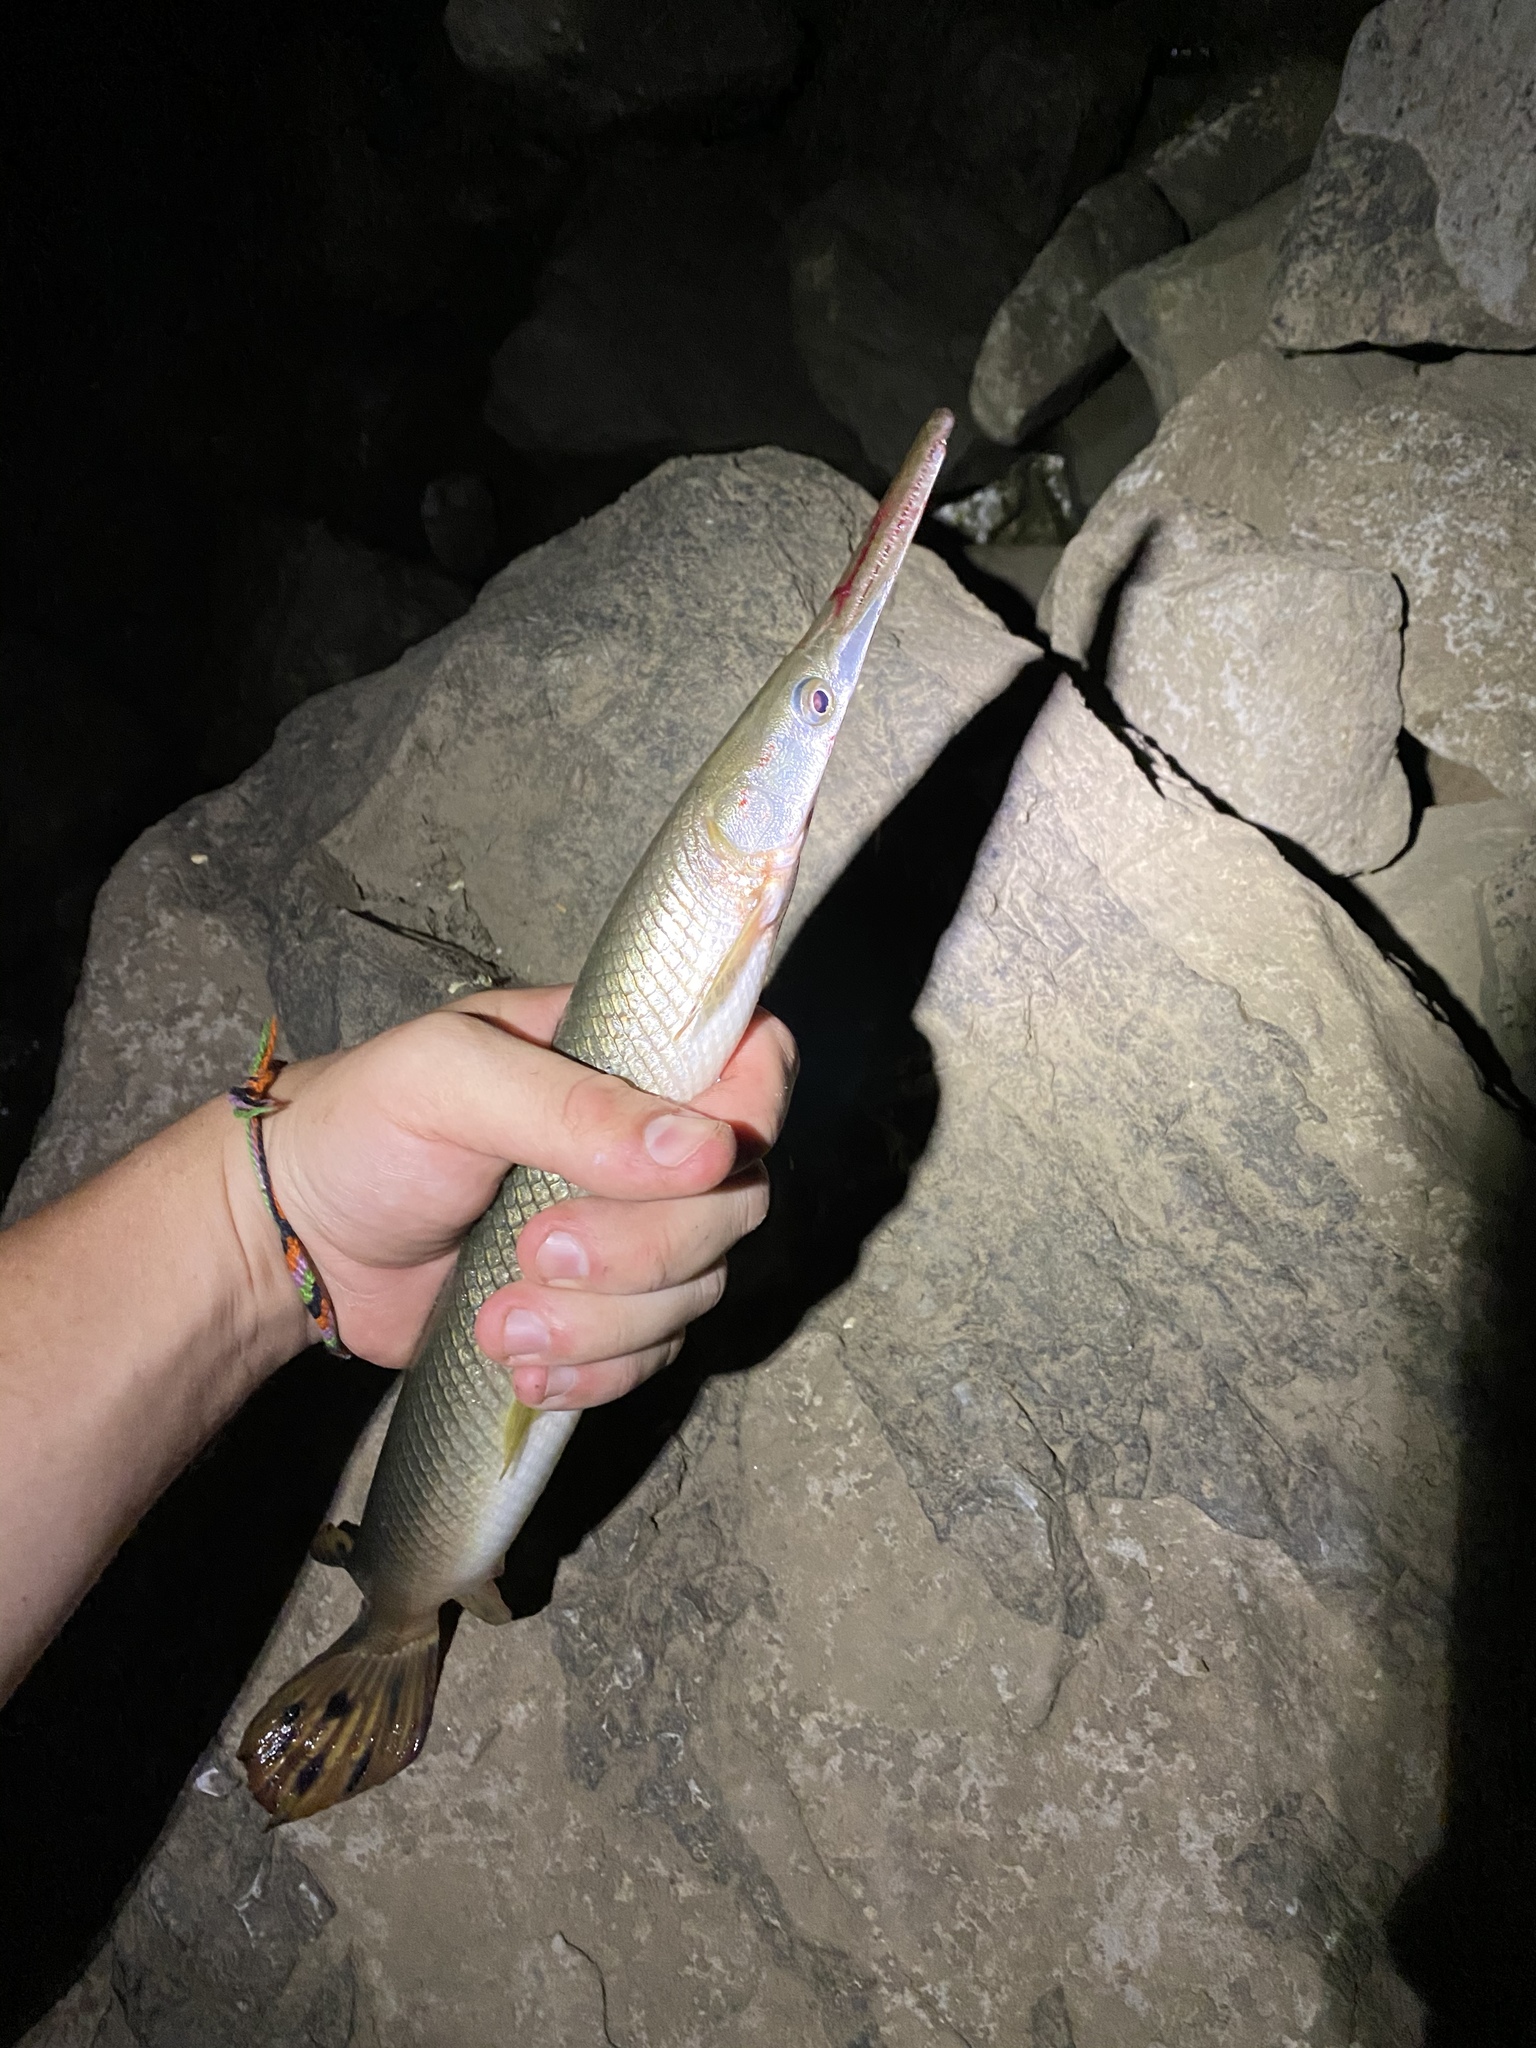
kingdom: Animalia
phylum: Chordata
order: Lepisosteiformes
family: Lepisosteidae
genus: Lepisosteus
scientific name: Lepisosteus platostomus
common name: Shortnose gar
